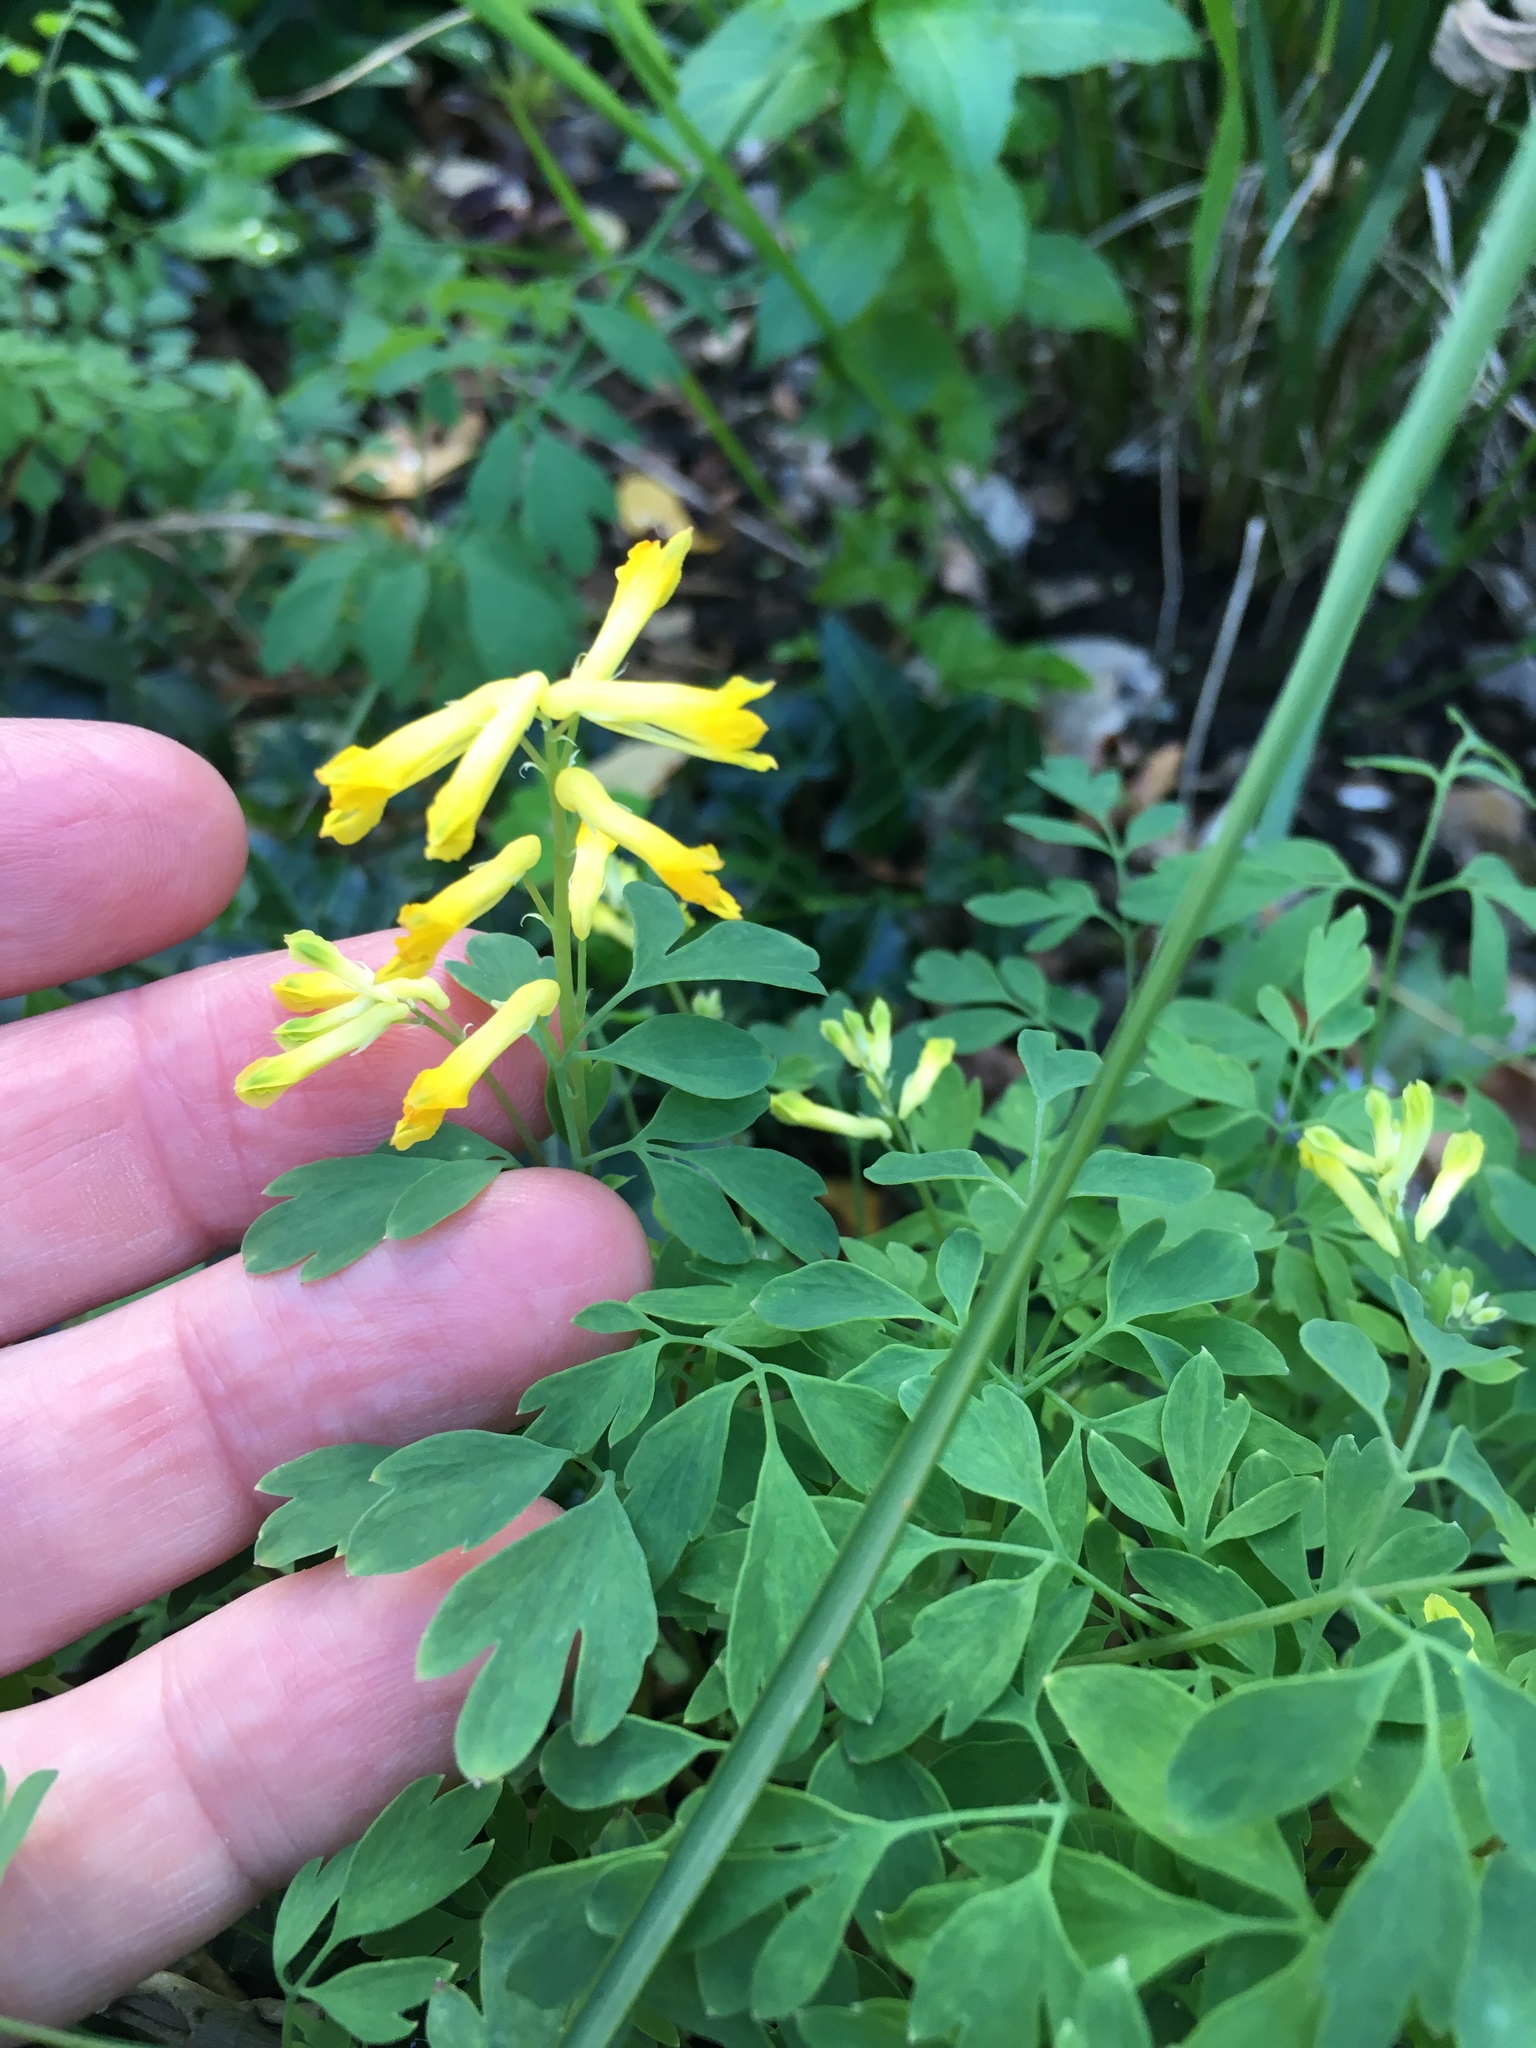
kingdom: Plantae
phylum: Tracheophyta
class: Magnoliopsida
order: Ranunculales
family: Papaveraceae
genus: Pseudofumaria
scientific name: Pseudofumaria lutea
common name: Yellow corydalis
